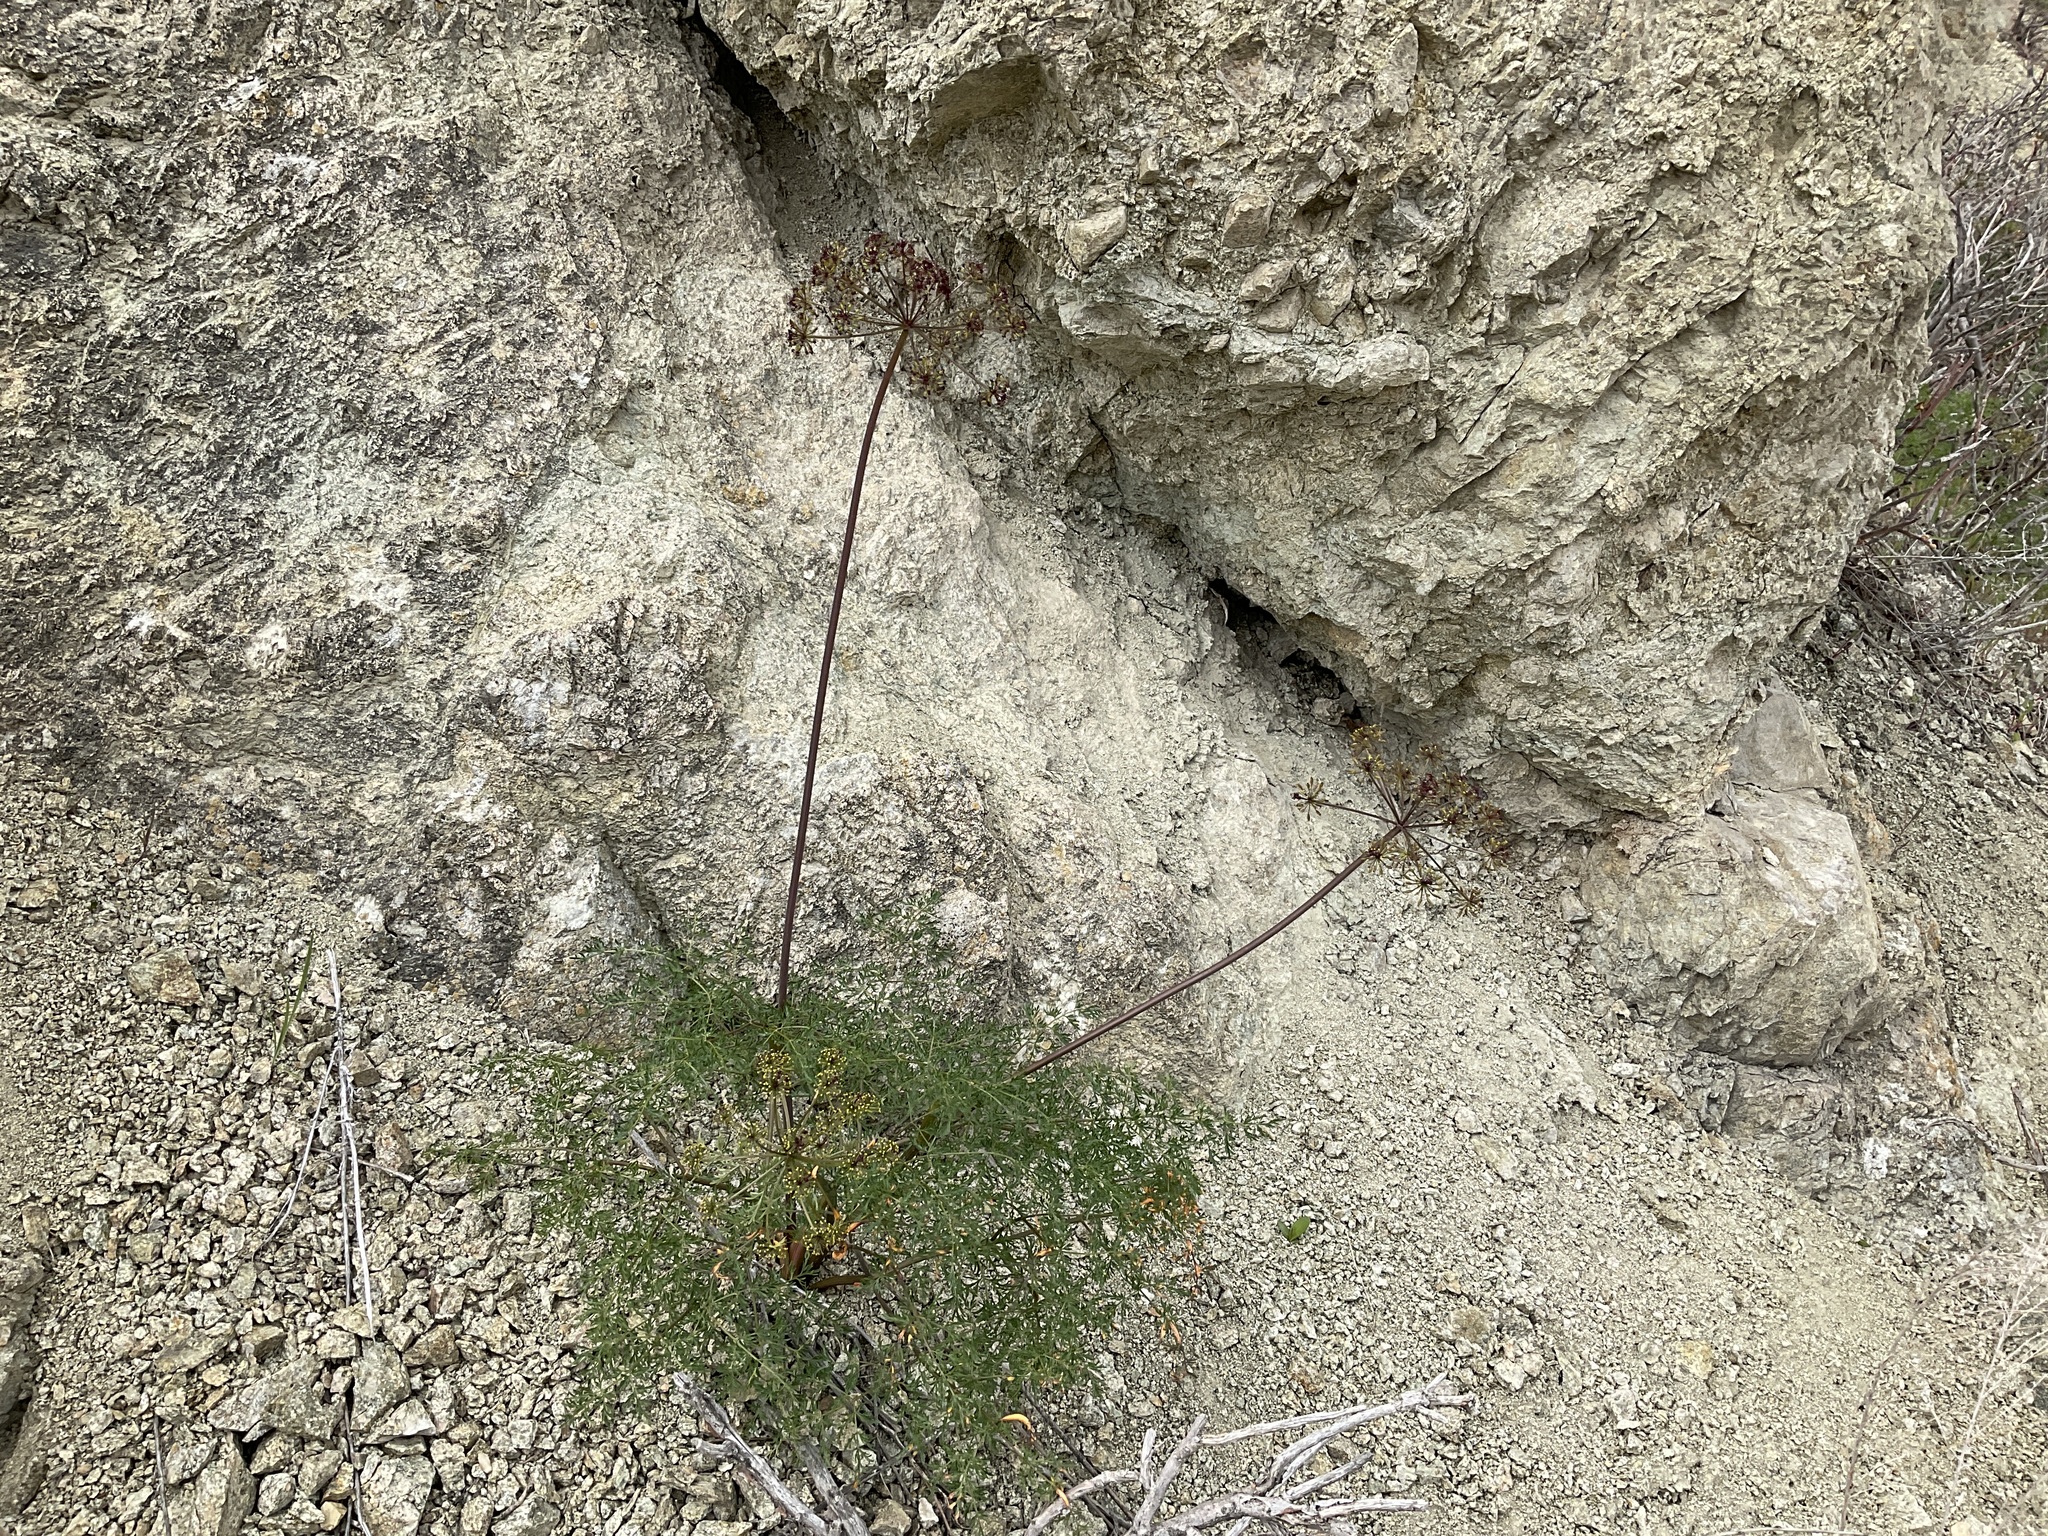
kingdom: Plantae
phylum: Tracheophyta
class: Magnoliopsida
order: Apiales
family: Apiaceae
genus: Lomatium
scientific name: Lomatium multifidum
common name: Carrot-leaved biscuitroot
